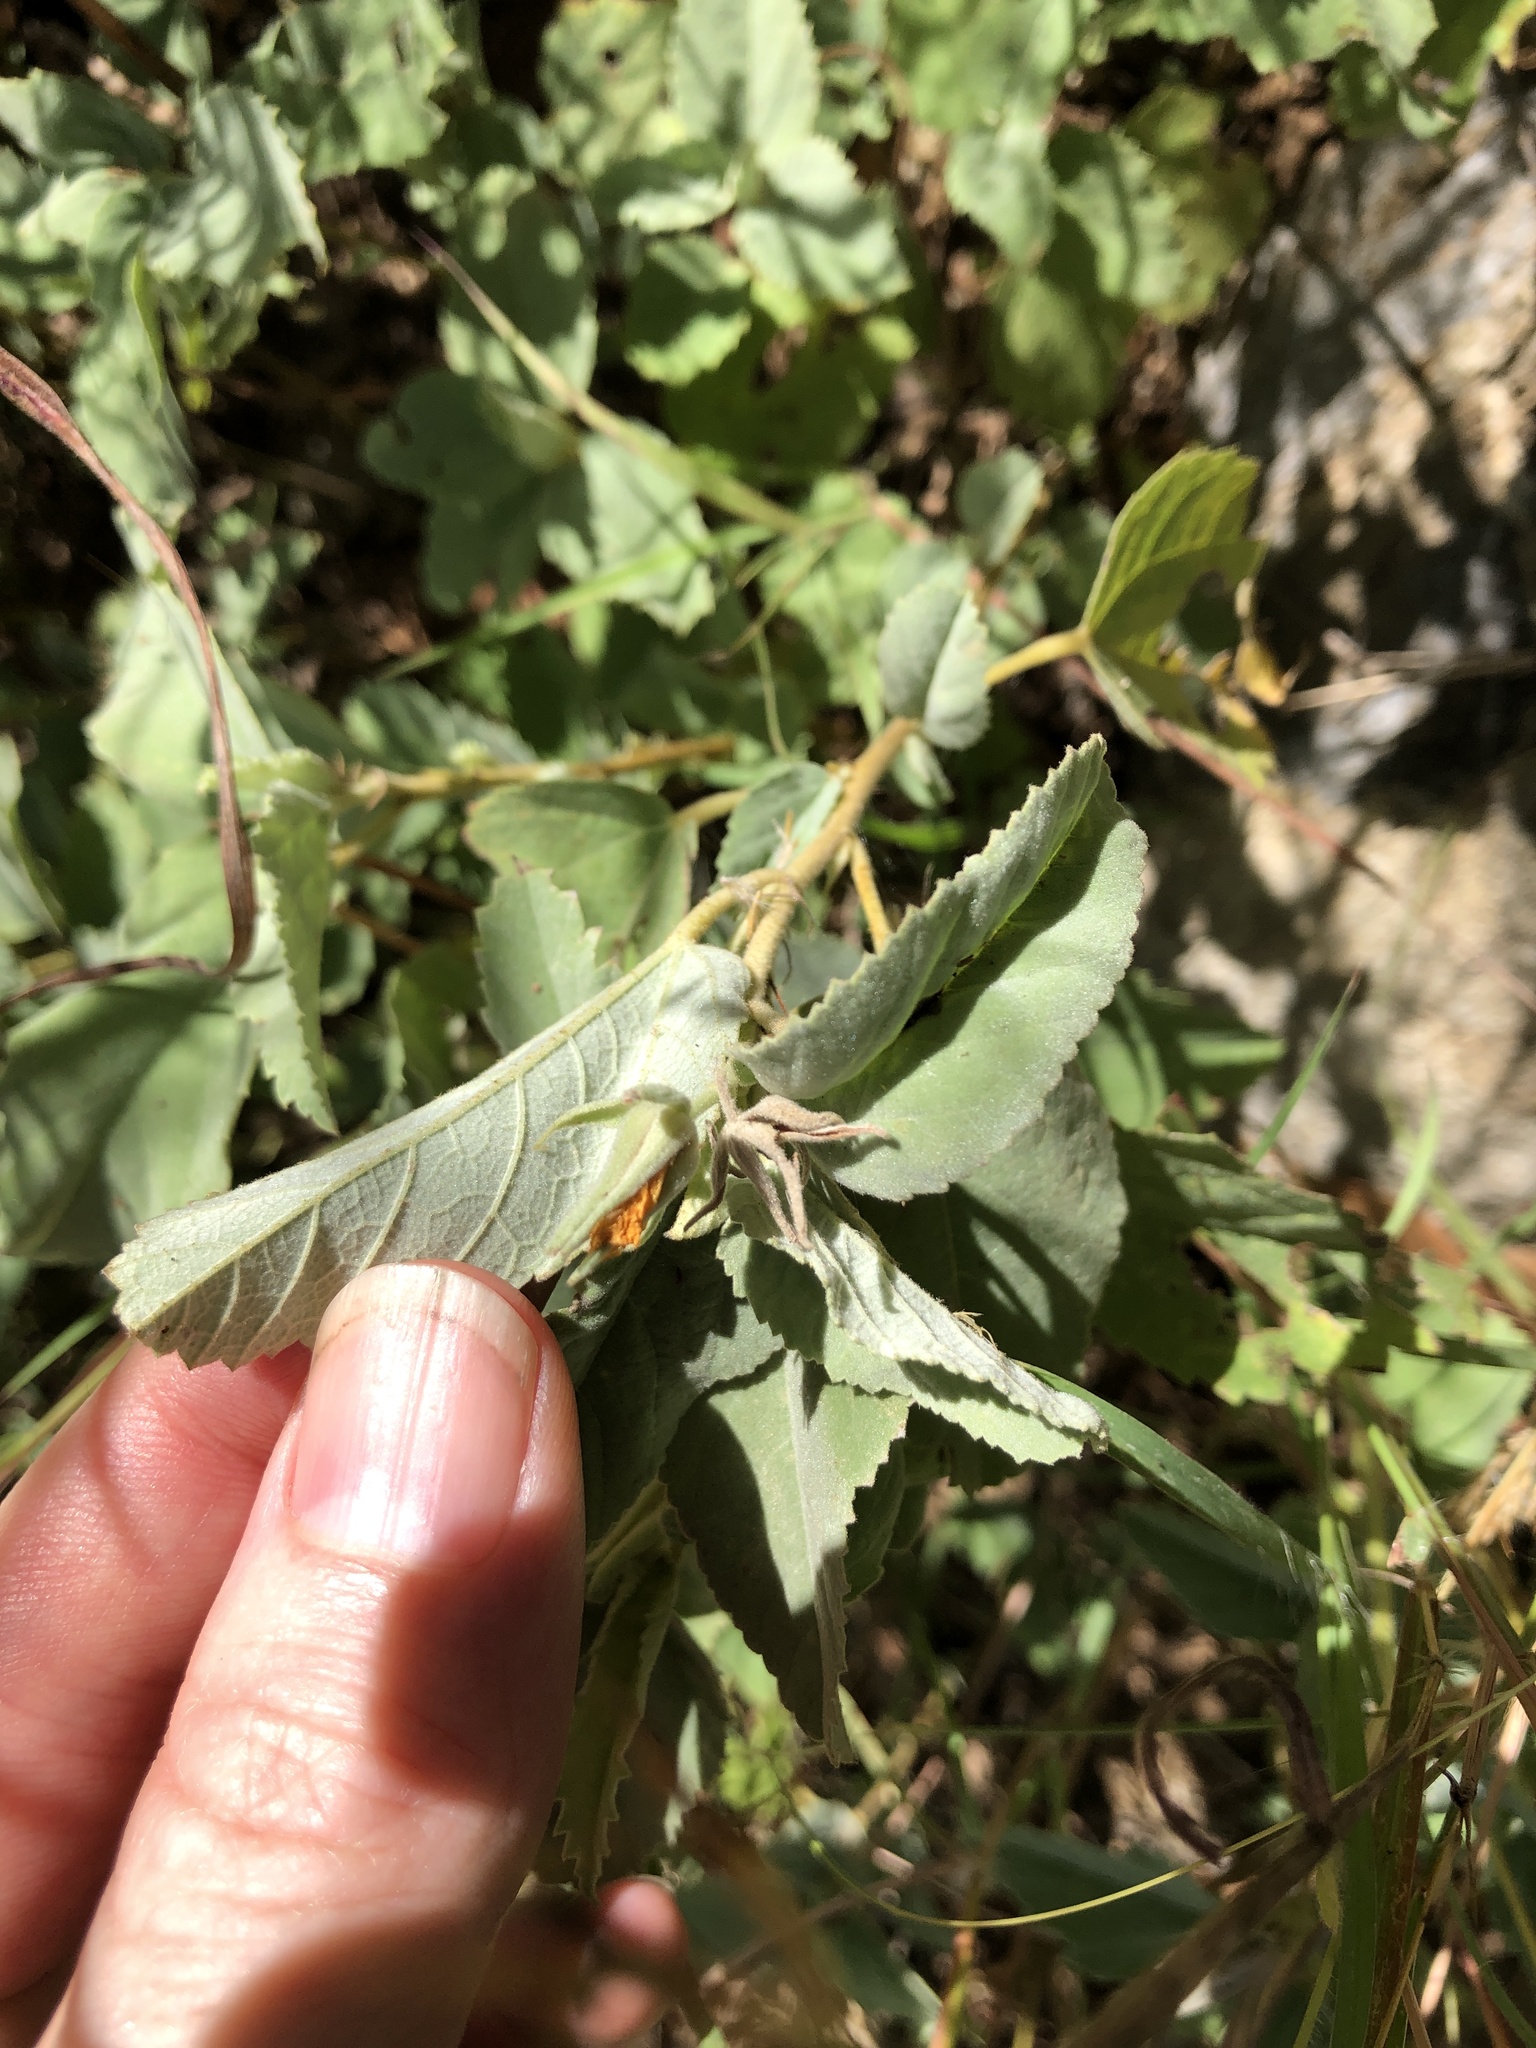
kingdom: Plantae
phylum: Tracheophyta
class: Magnoliopsida
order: Malvales
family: Malvaceae
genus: Melhania
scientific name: Melhania oblongifolia
